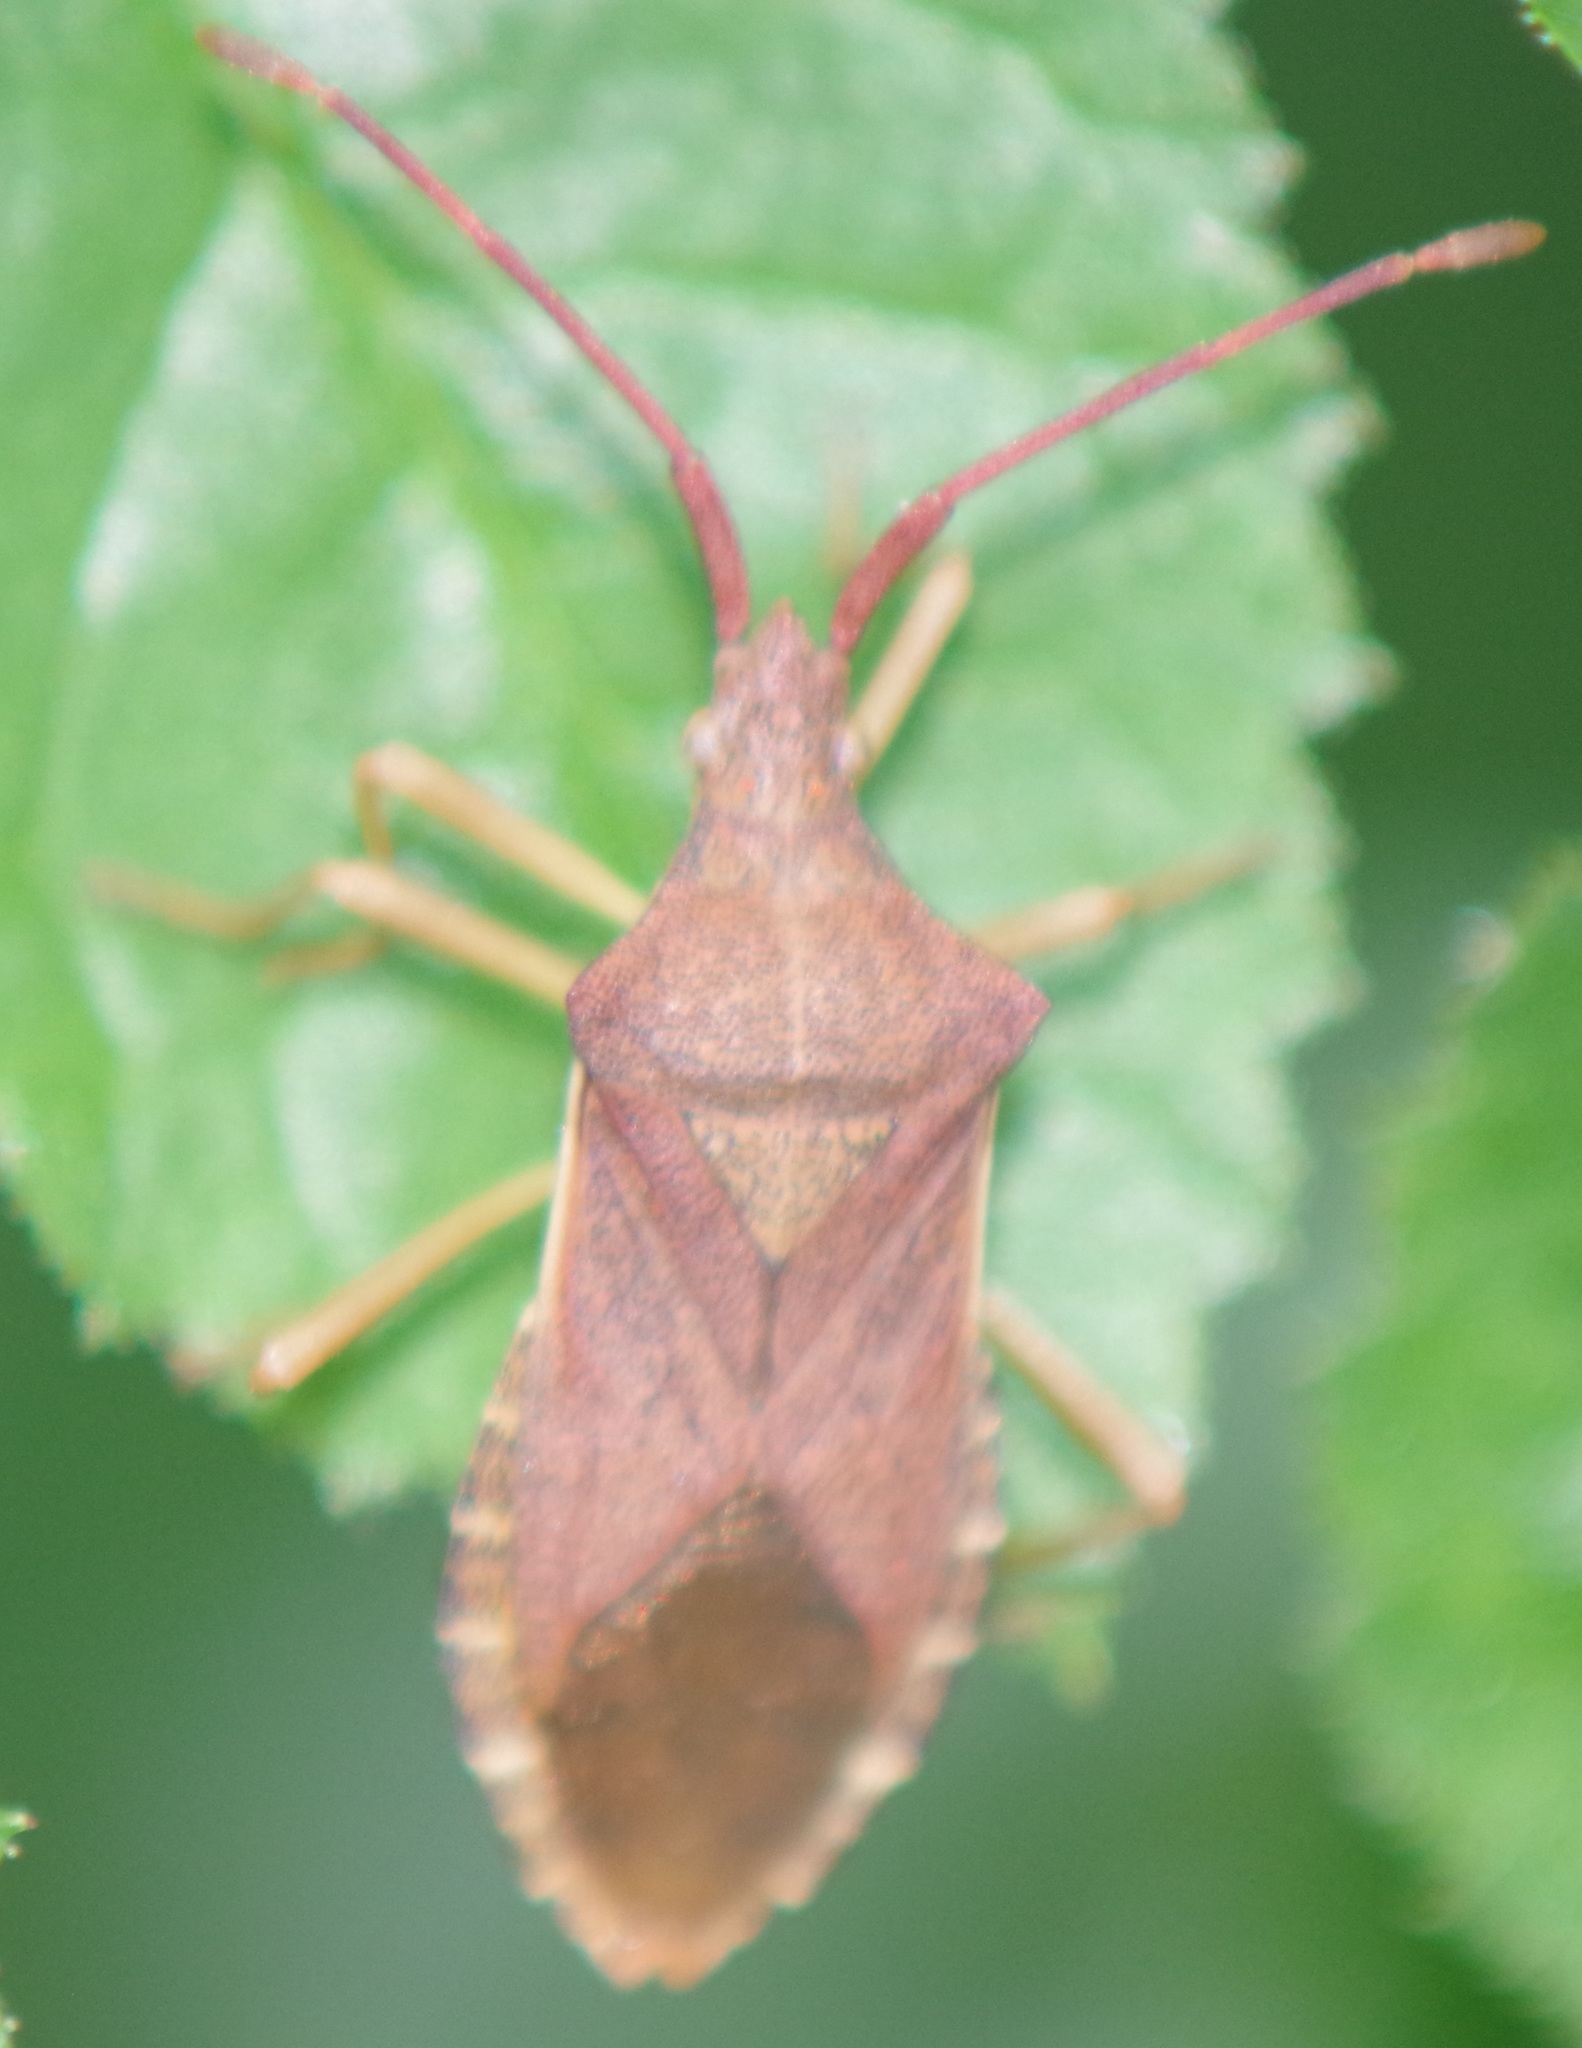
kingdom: Animalia
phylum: Arthropoda
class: Insecta
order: Hemiptera
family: Coreidae
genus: Gonocerus
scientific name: Gonocerus acuteangulatus
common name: Box bug
